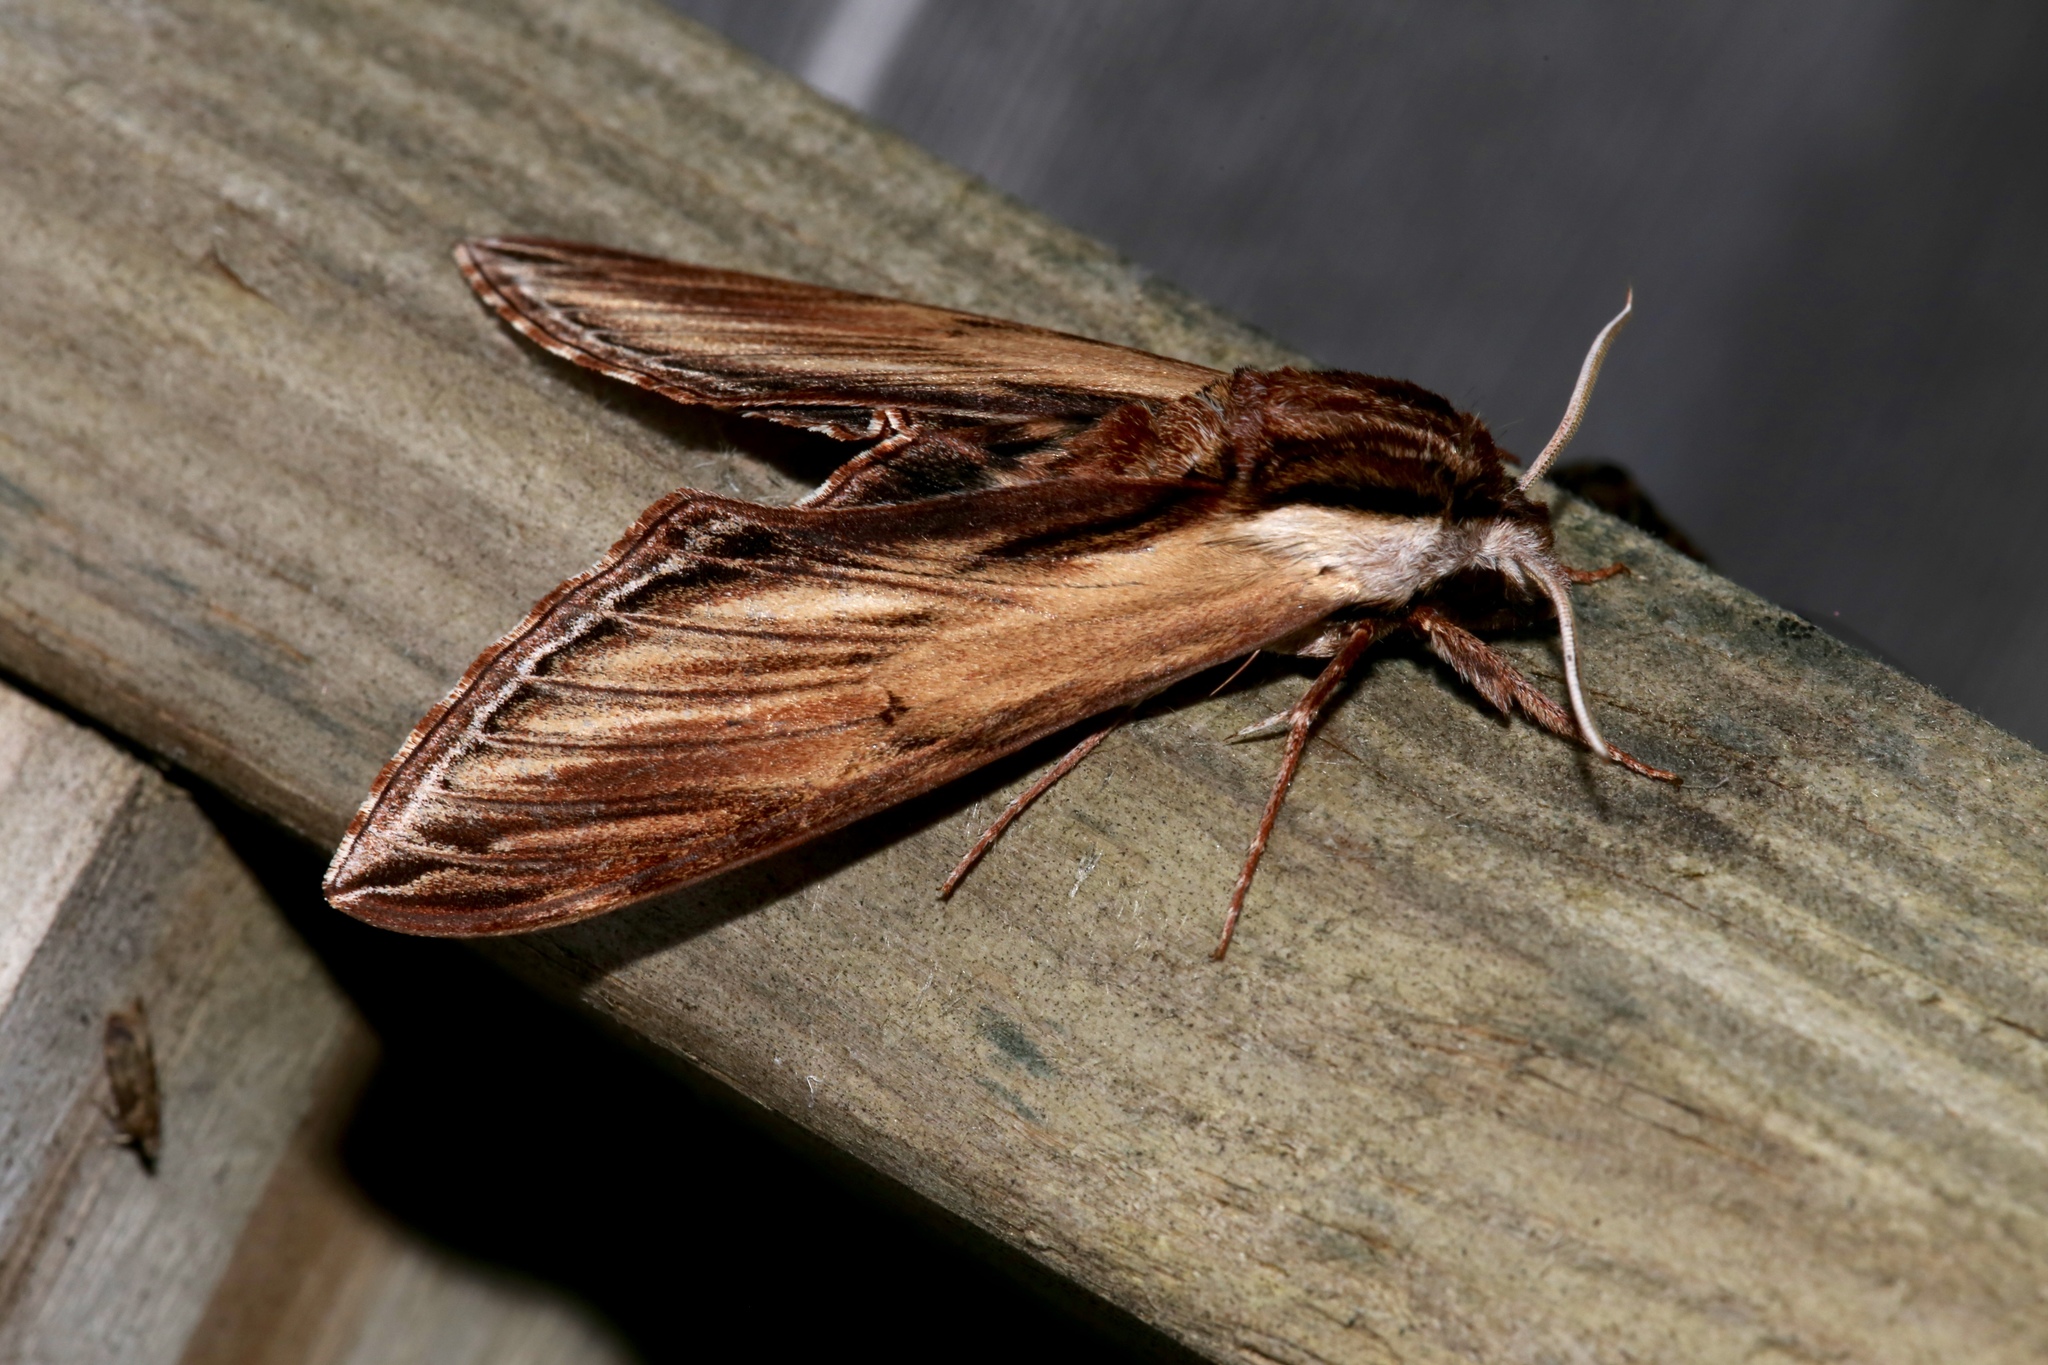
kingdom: Animalia
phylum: Arthropoda
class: Insecta
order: Lepidoptera
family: Sphingidae
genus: Sphinx
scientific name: Sphinx kalmiae
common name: Laurel sphinx
